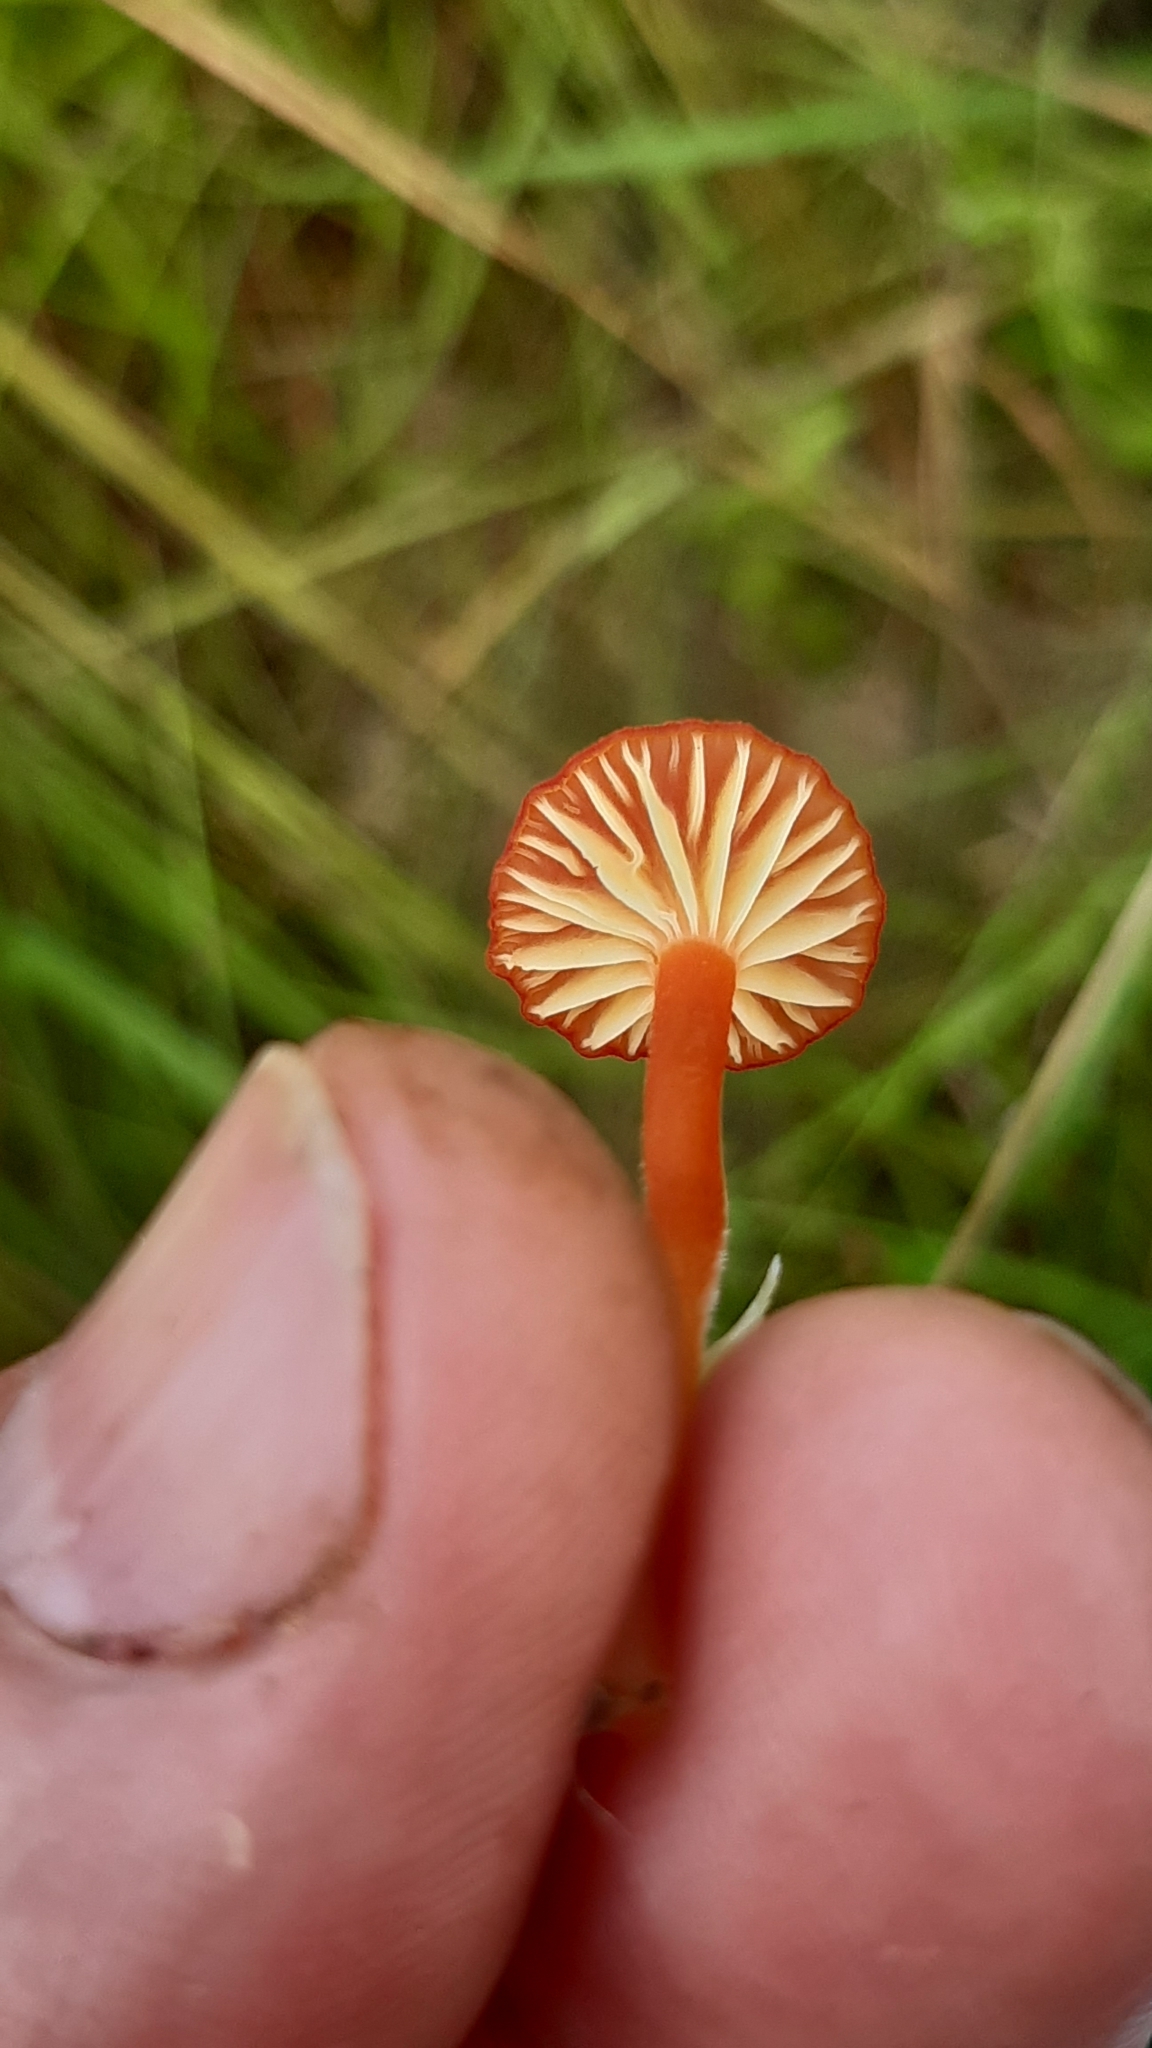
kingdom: Fungi
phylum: Basidiomycota
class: Agaricomycetes
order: Agaricales
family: Hygrophoraceae
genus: Hygrocybe
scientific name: Hygrocybe coccineocrenata
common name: Bog waxcap
